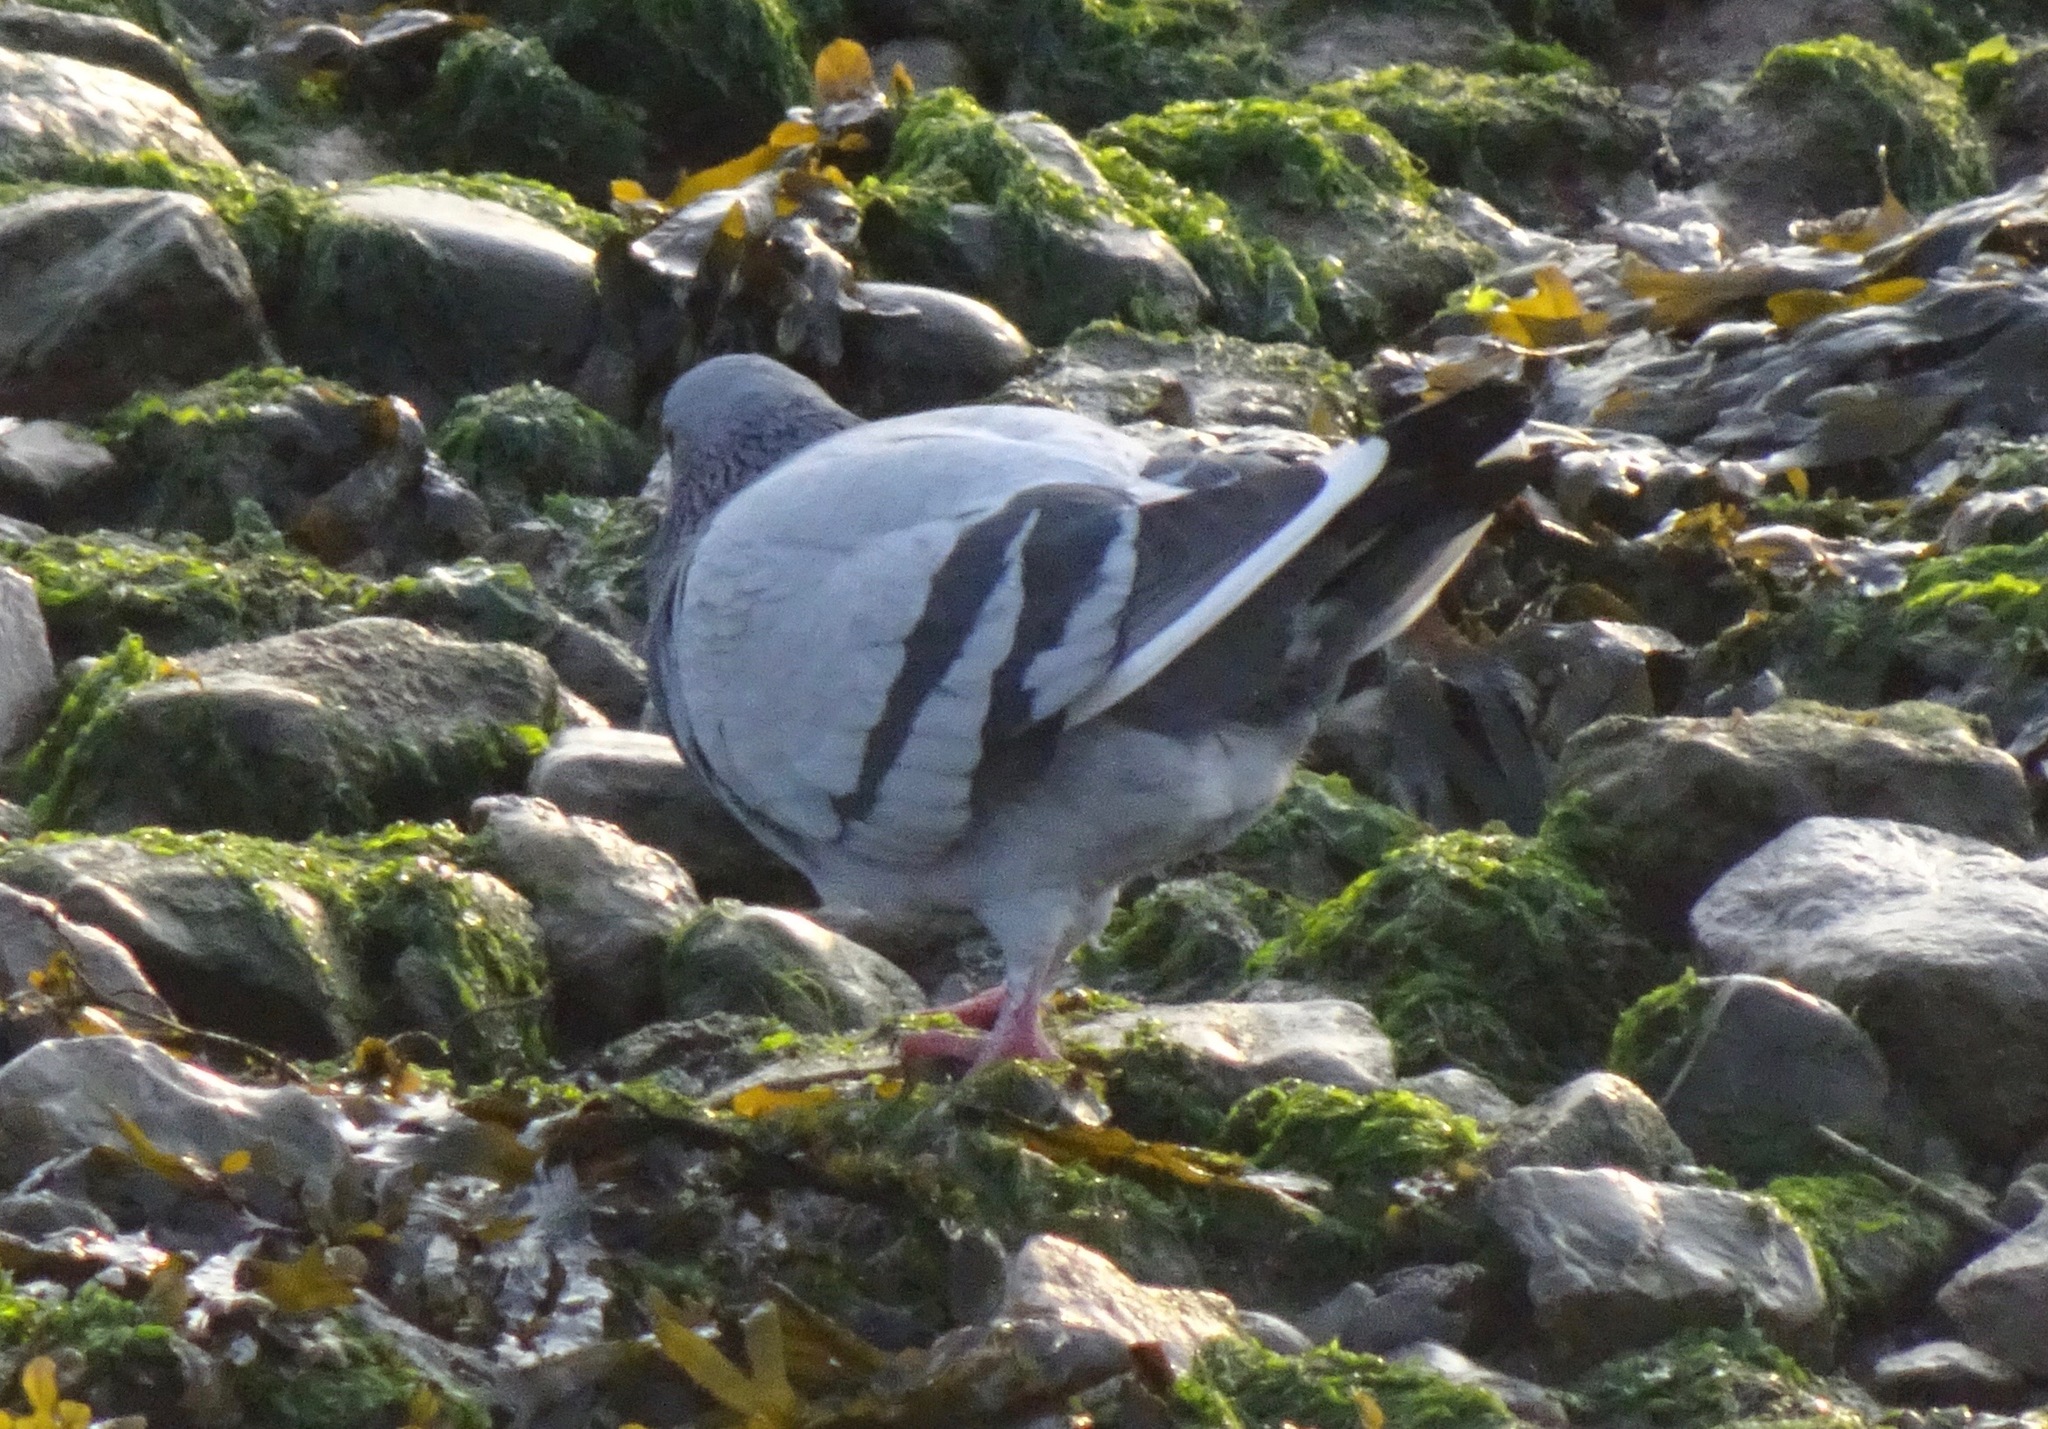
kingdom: Animalia
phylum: Chordata
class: Aves
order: Columbiformes
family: Columbidae
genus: Columba
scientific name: Columba livia
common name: Rock pigeon
